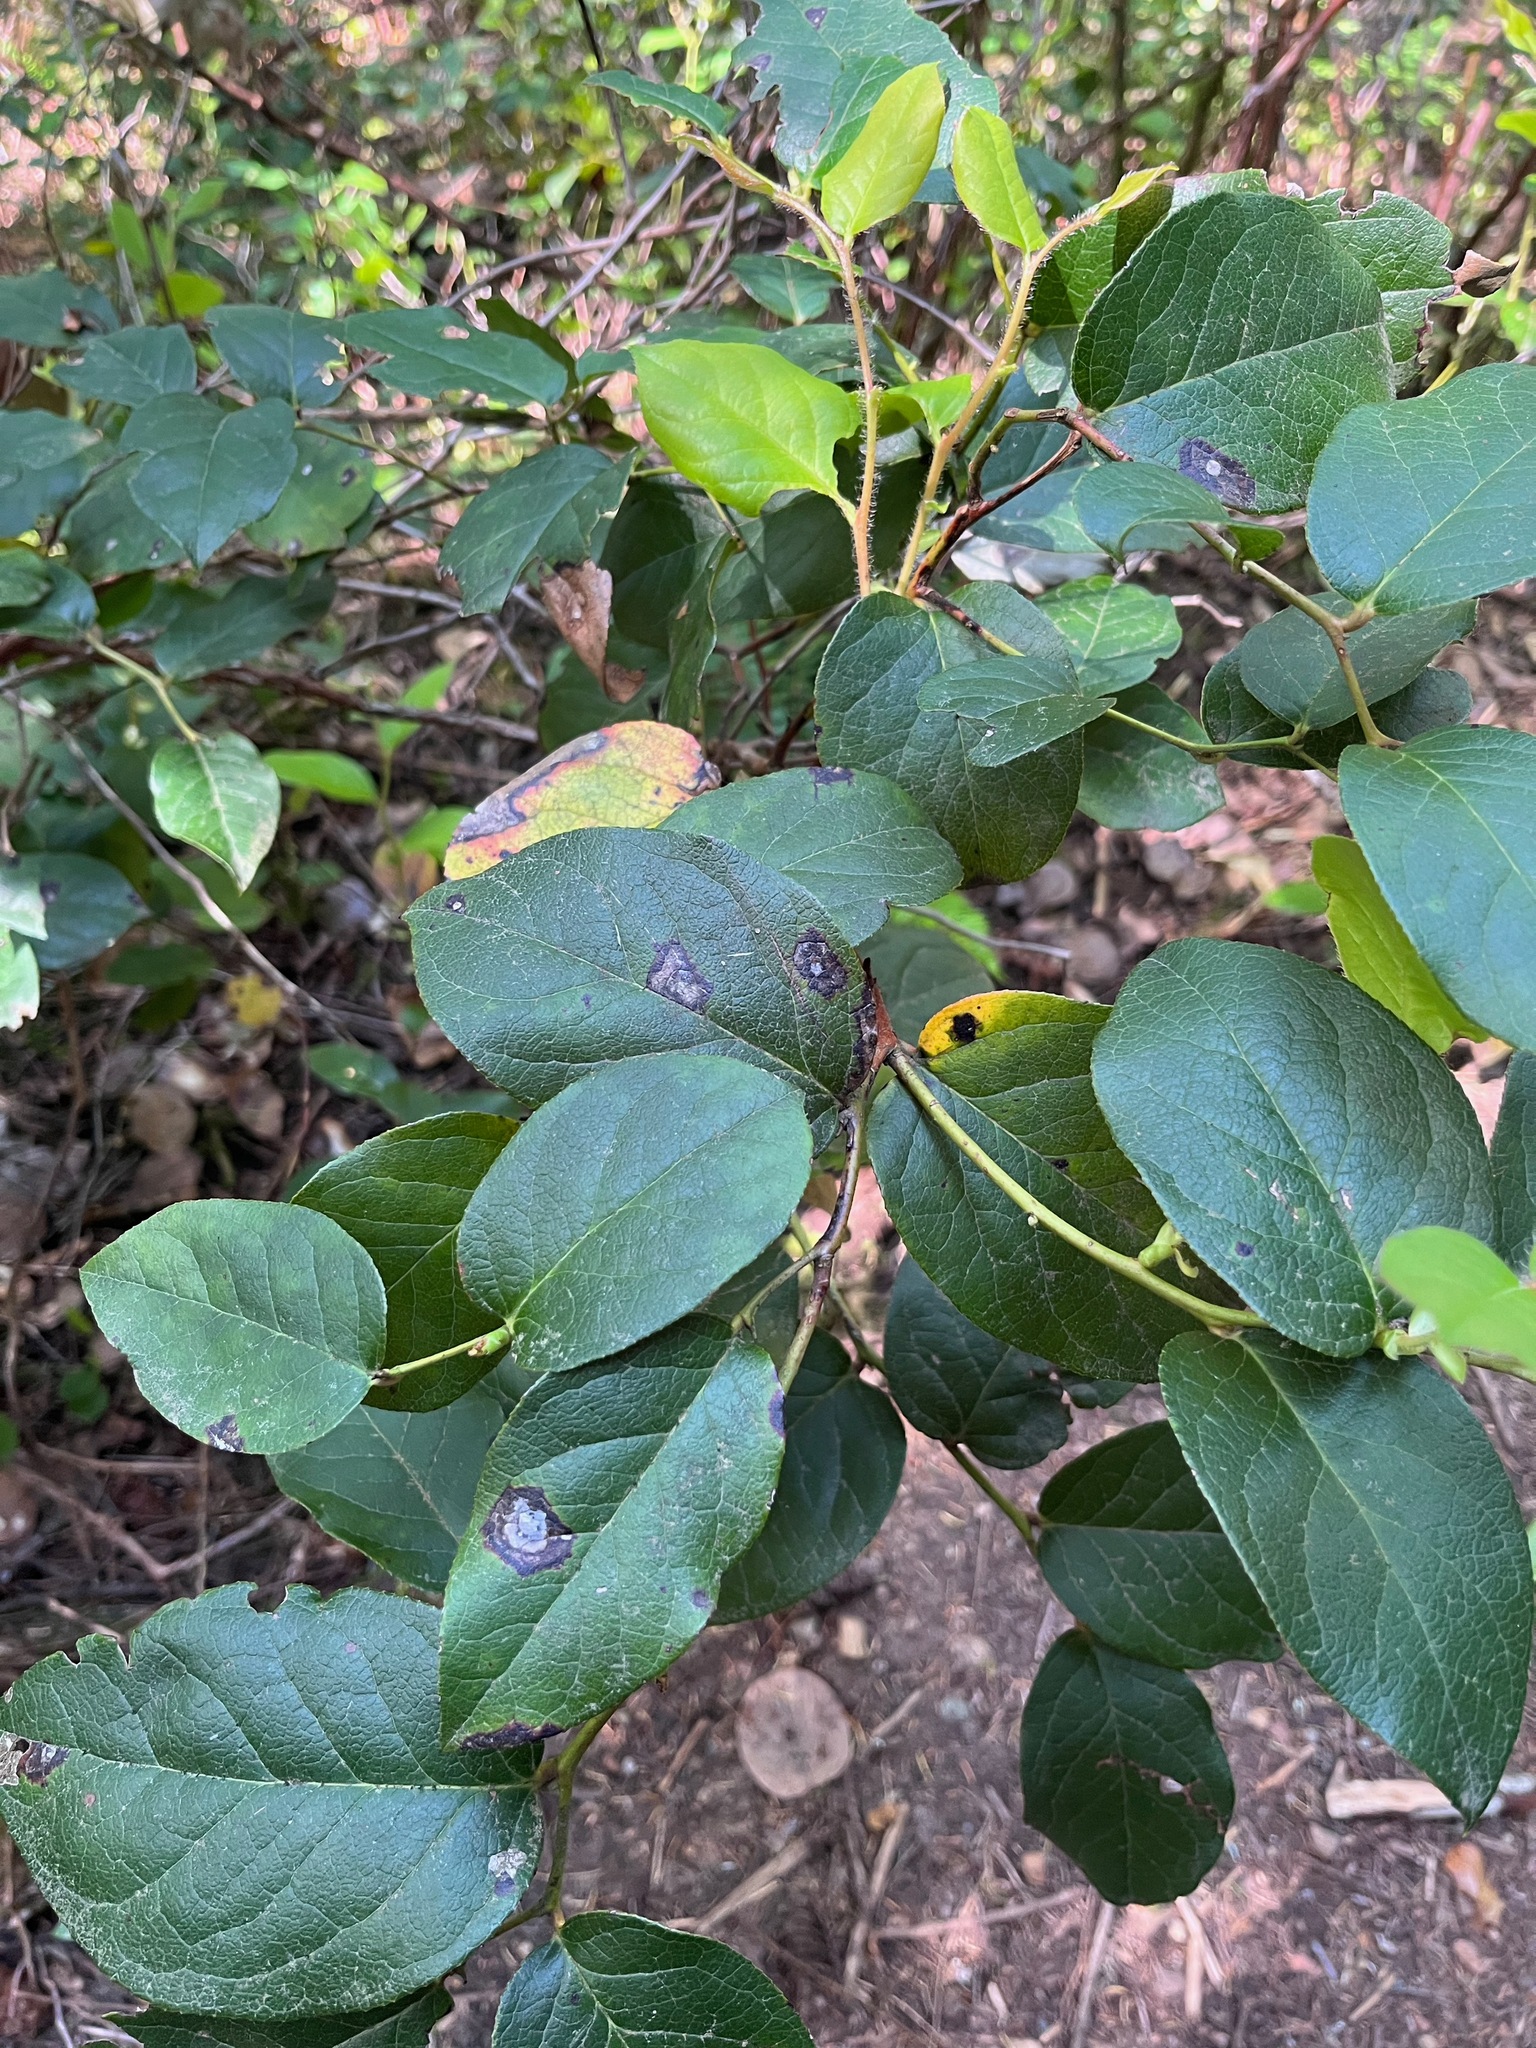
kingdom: Plantae
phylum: Tracheophyta
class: Magnoliopsida
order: Ericales
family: Ericaceae
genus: Gaultheria
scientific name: Gaultheria shallon
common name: Shallon
